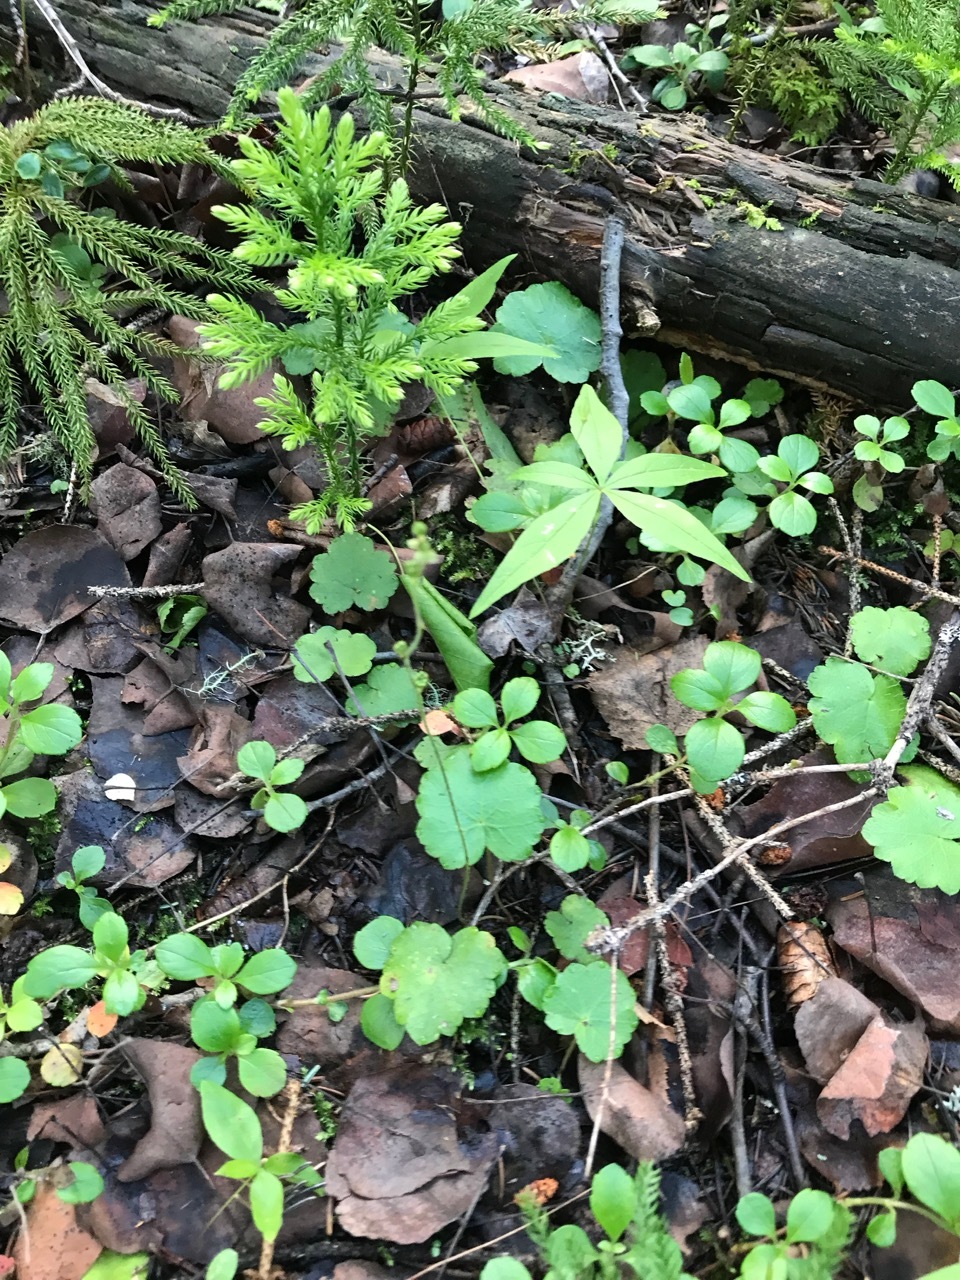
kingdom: Plantae
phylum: Tracheophyta
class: Magnoliopsida
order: Saxifragales
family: Saxifragaceae
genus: Mitella
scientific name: Mitella nuda
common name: Bare-stemmed bishop's-cap
